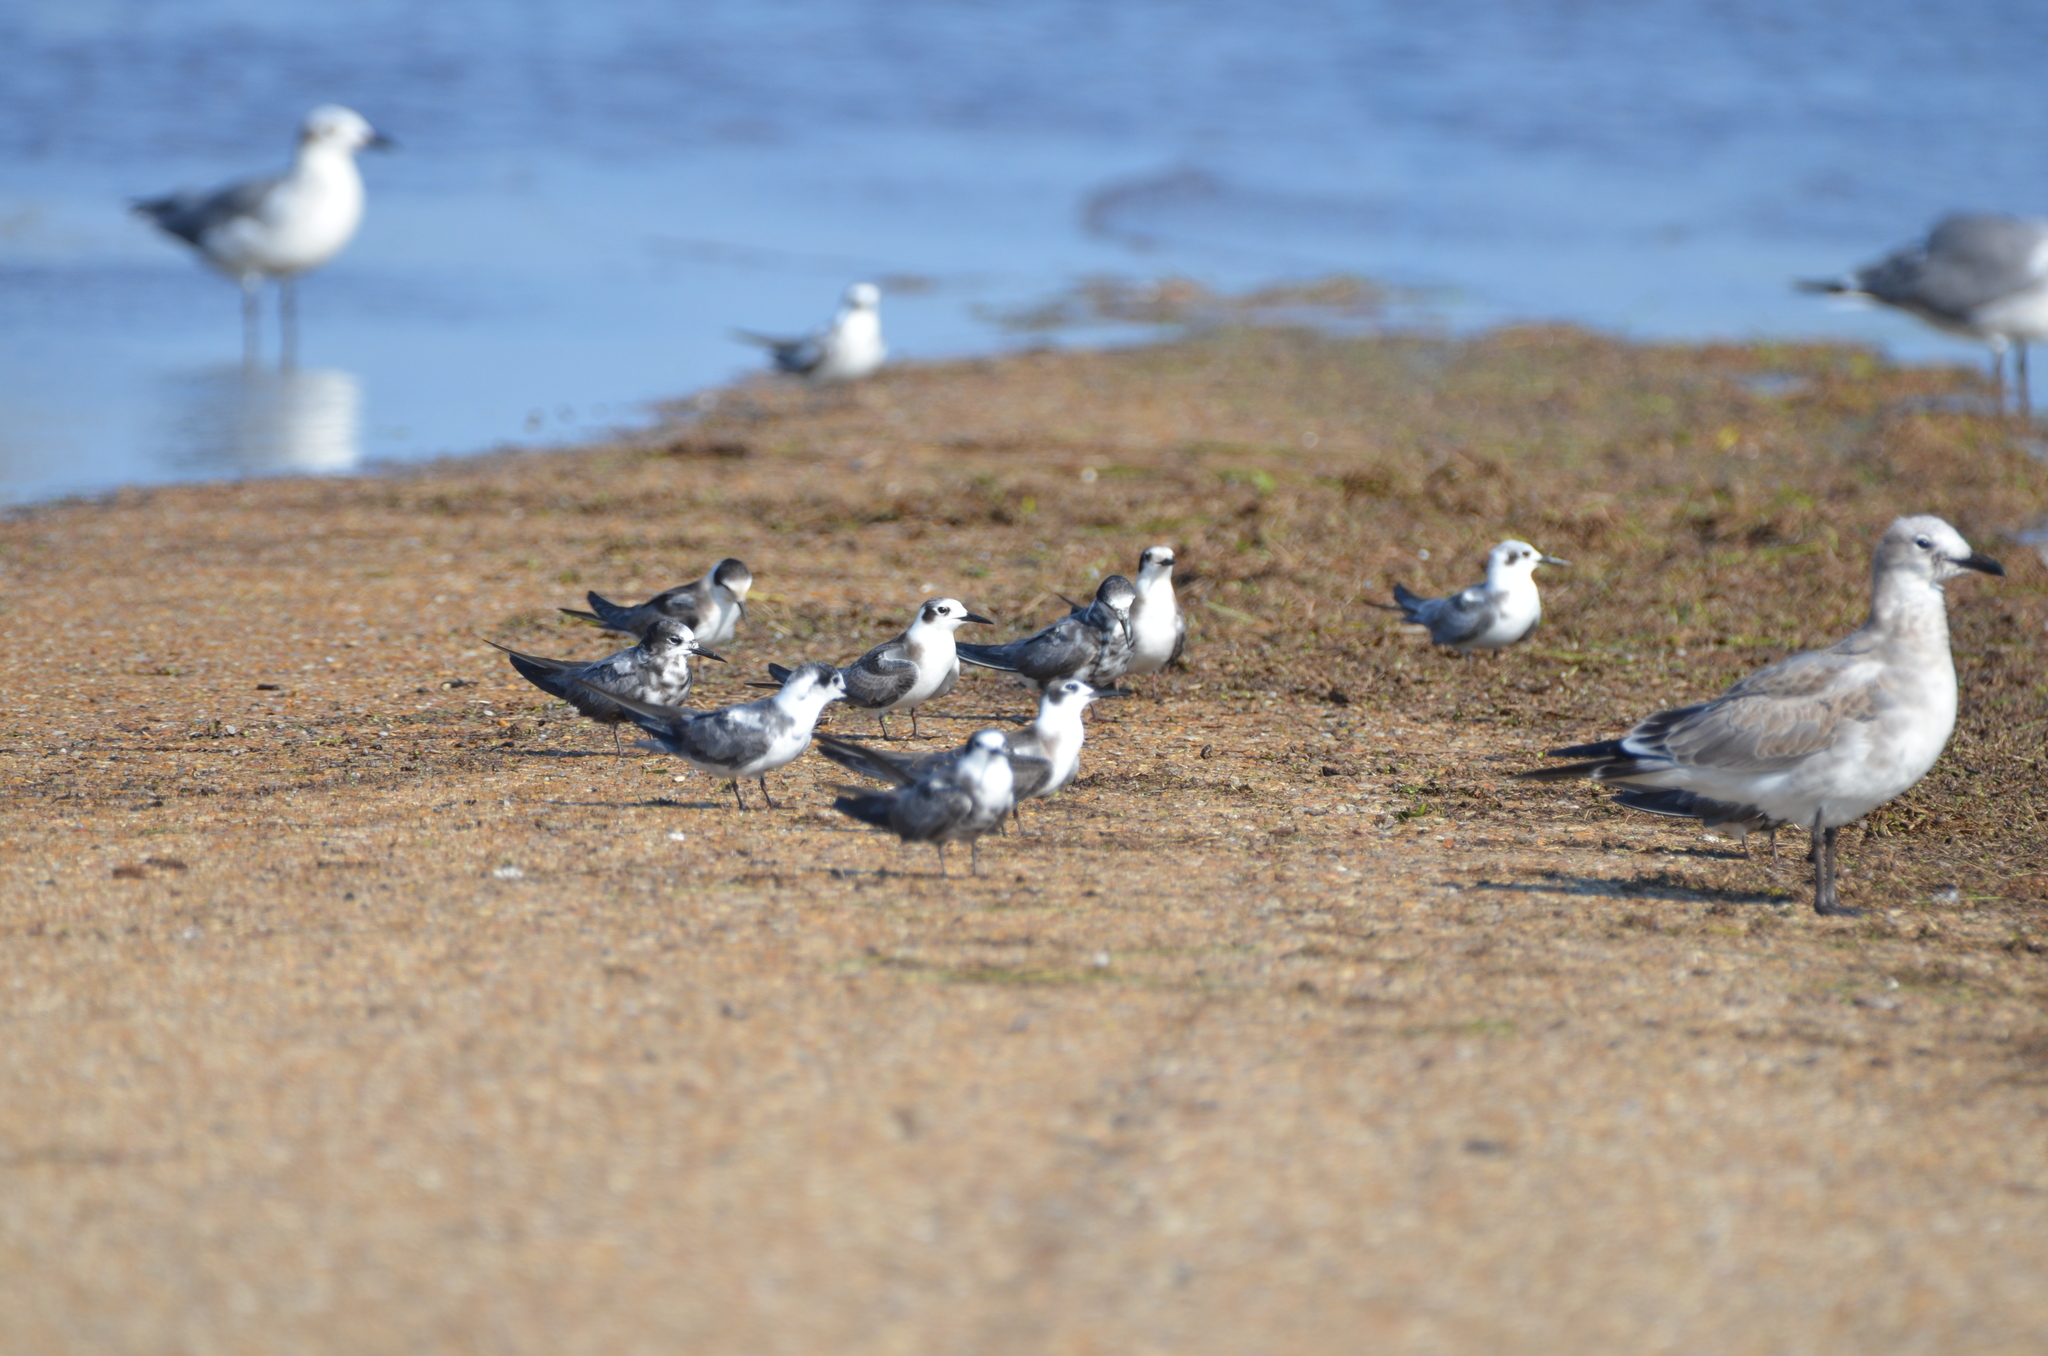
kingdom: Animalia
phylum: Chordata
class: Aves
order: Charadriiformes
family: Laridae
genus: Chlidonias
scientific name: Chlidonias niger
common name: Black tern
